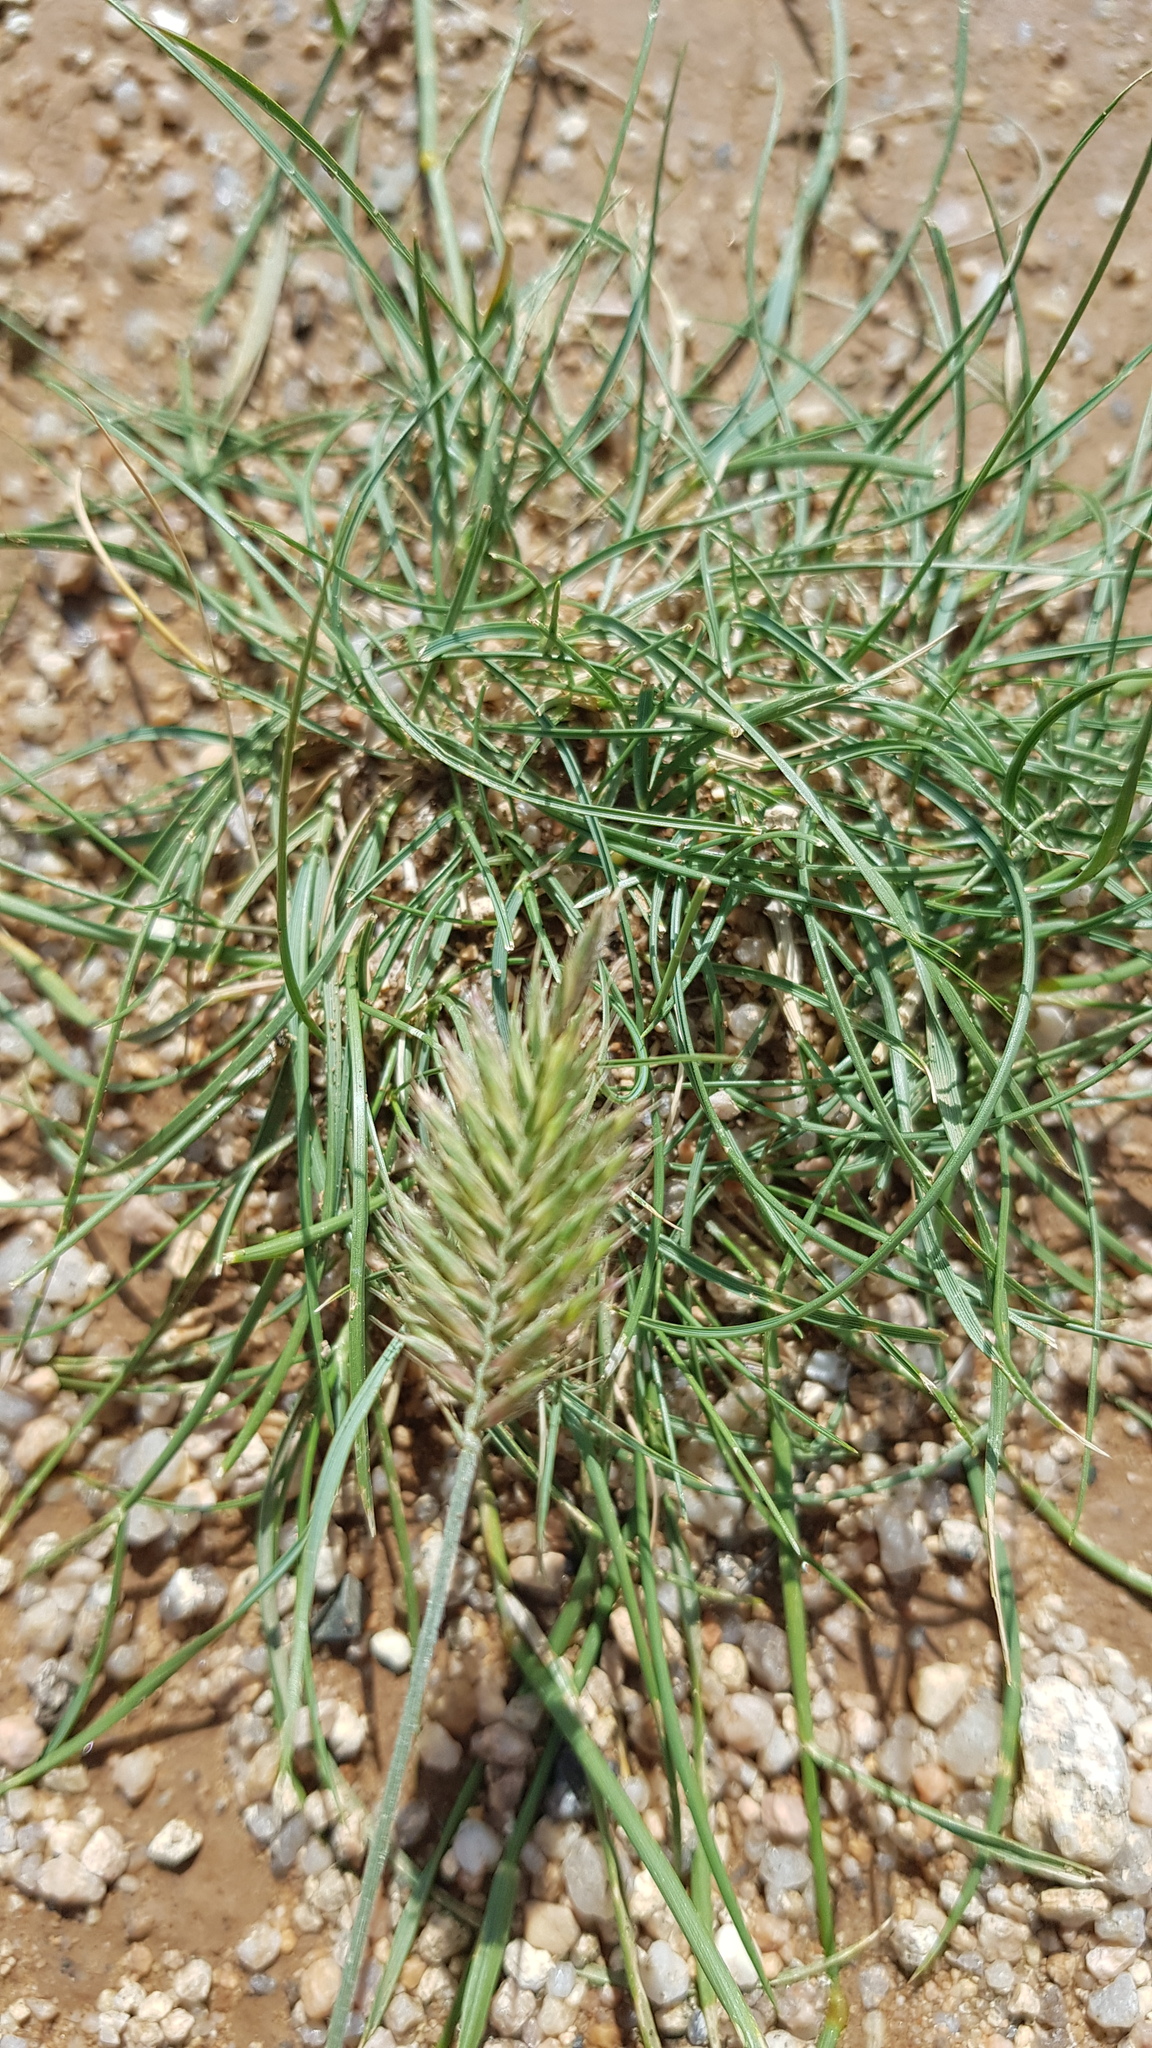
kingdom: Plantae
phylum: Tracheophyta
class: Liliopsida
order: Poales
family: Poaceae
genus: Agropyron
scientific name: Agropyron cristatum
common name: Crested wheatgrass
